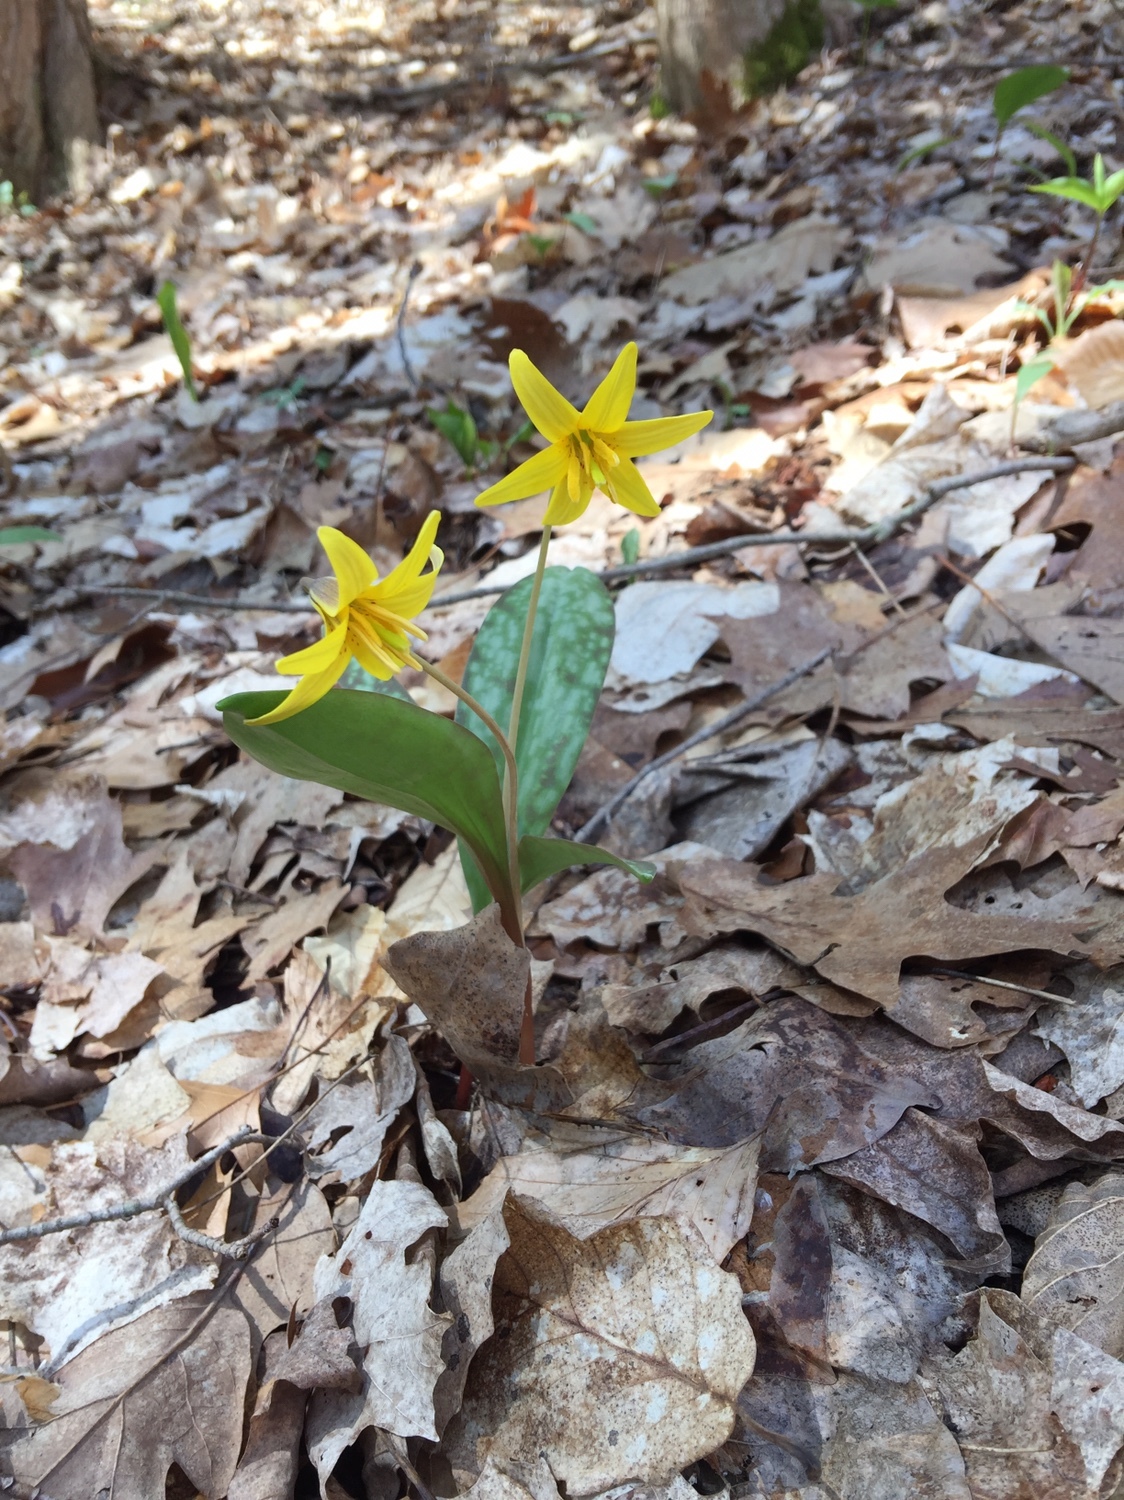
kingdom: Plantae
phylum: Tracheophyta
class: Liliopsida
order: Liliales
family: Liliaceae
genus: Erythronium
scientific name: Erythronium americanum
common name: Yellow adder's-tongue
